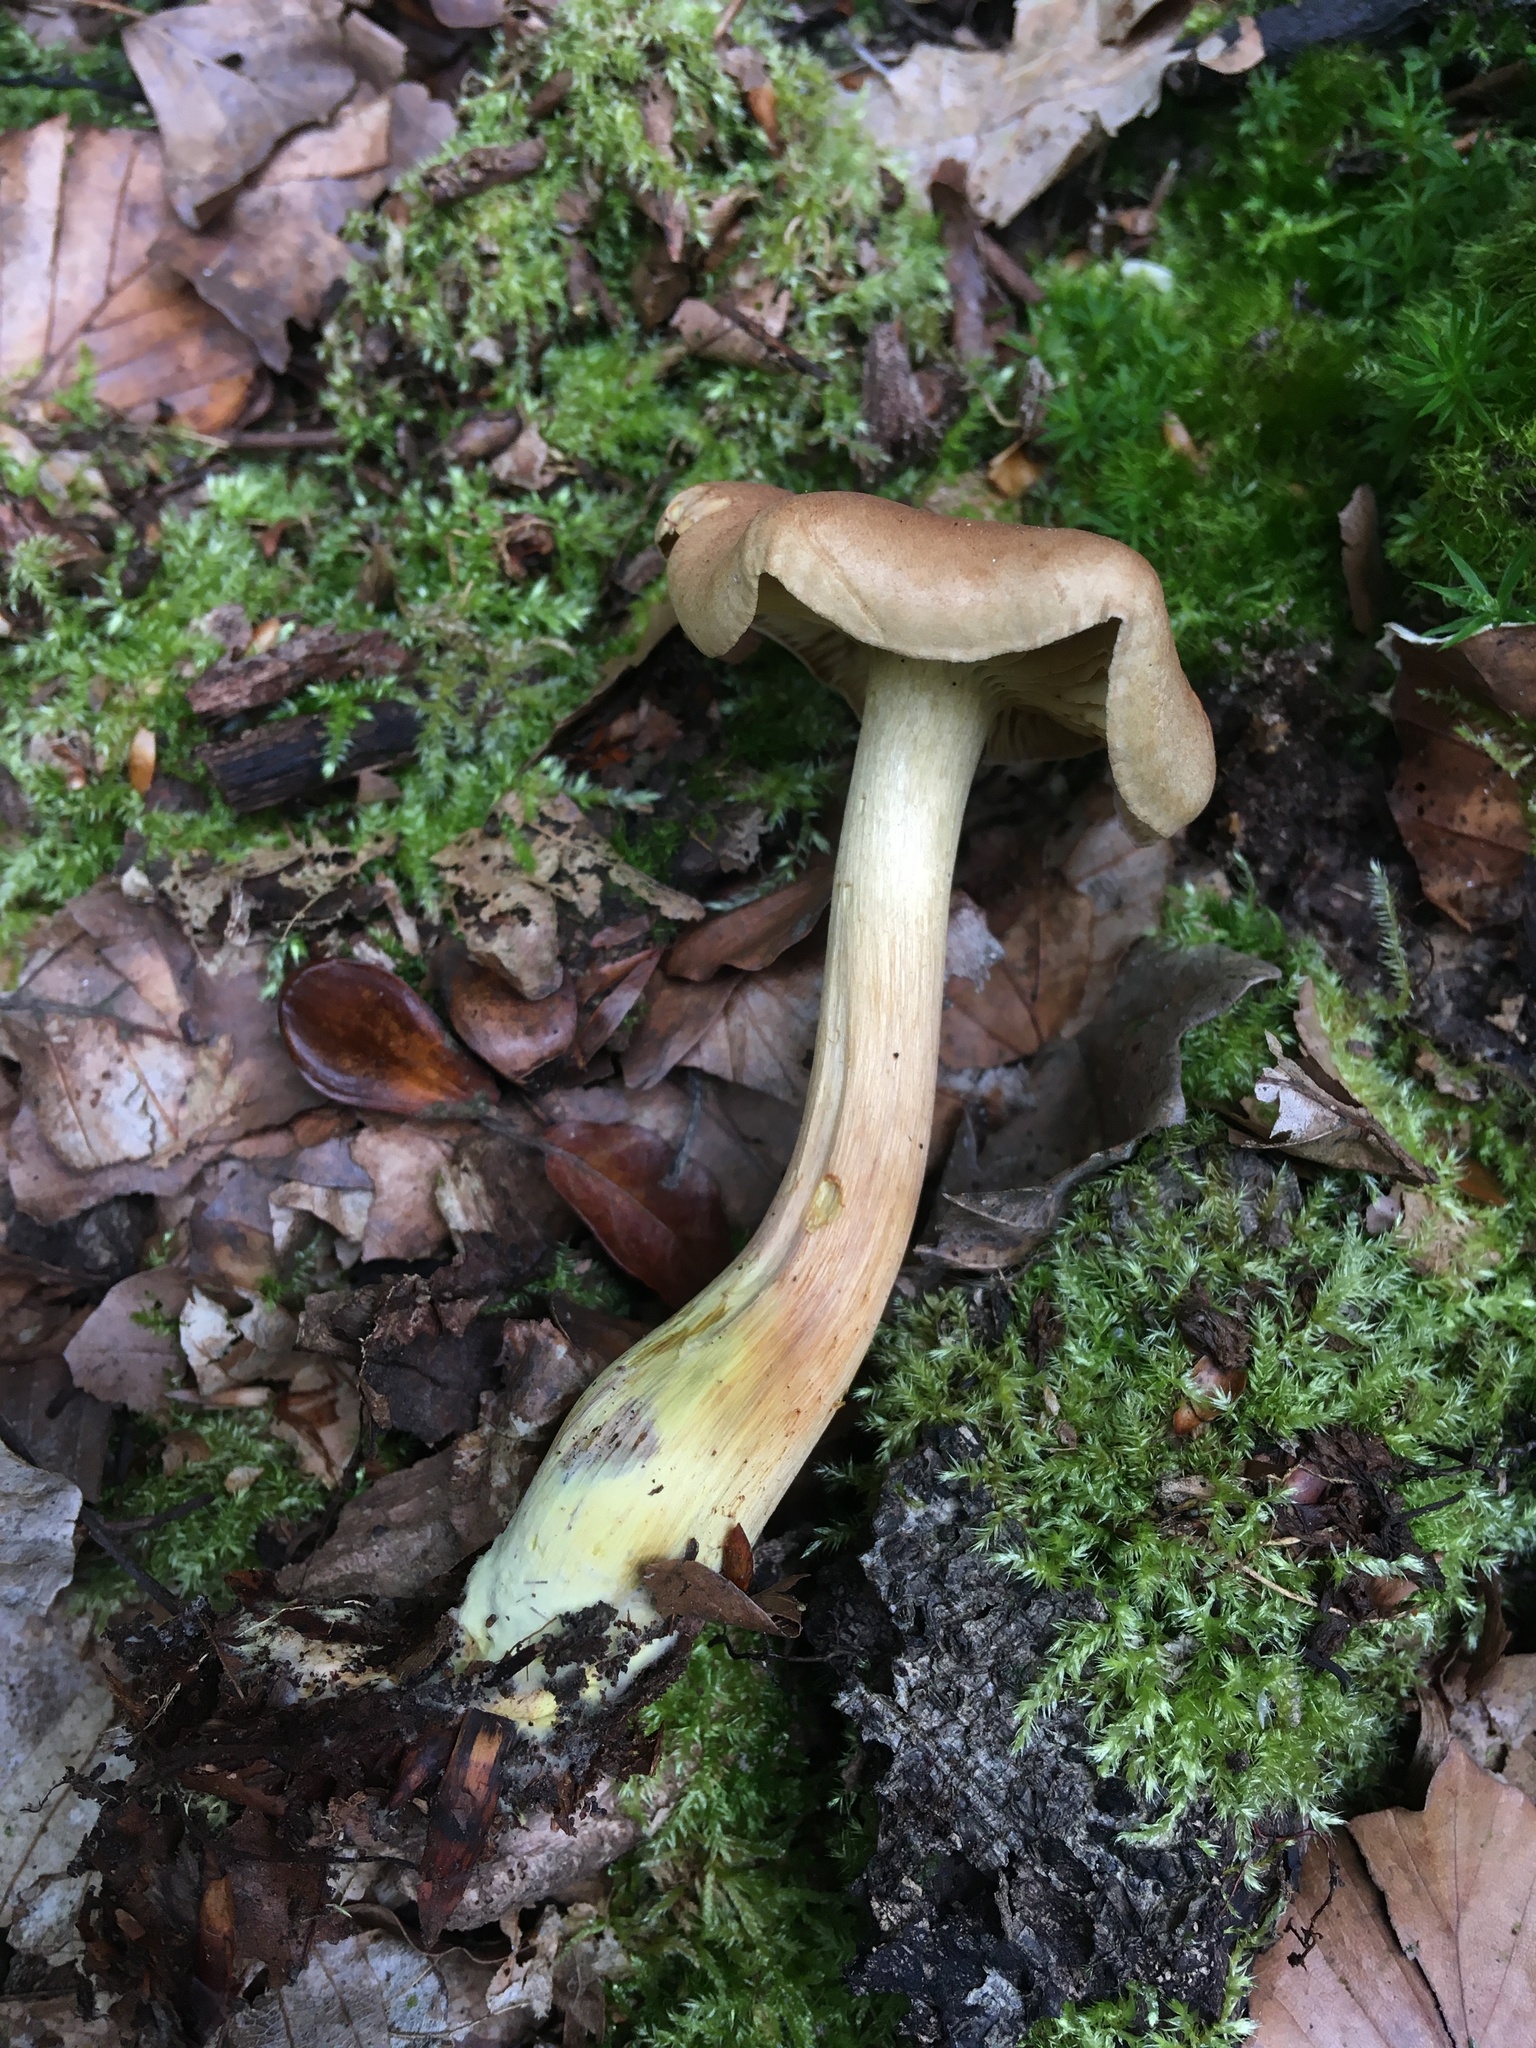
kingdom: Fungi
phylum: Basidiomycota
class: Agaricomycetes
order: Agaricales
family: Tricholomataceae
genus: Tricholoma
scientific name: Tricholoma sulphureum
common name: Stinky knight
